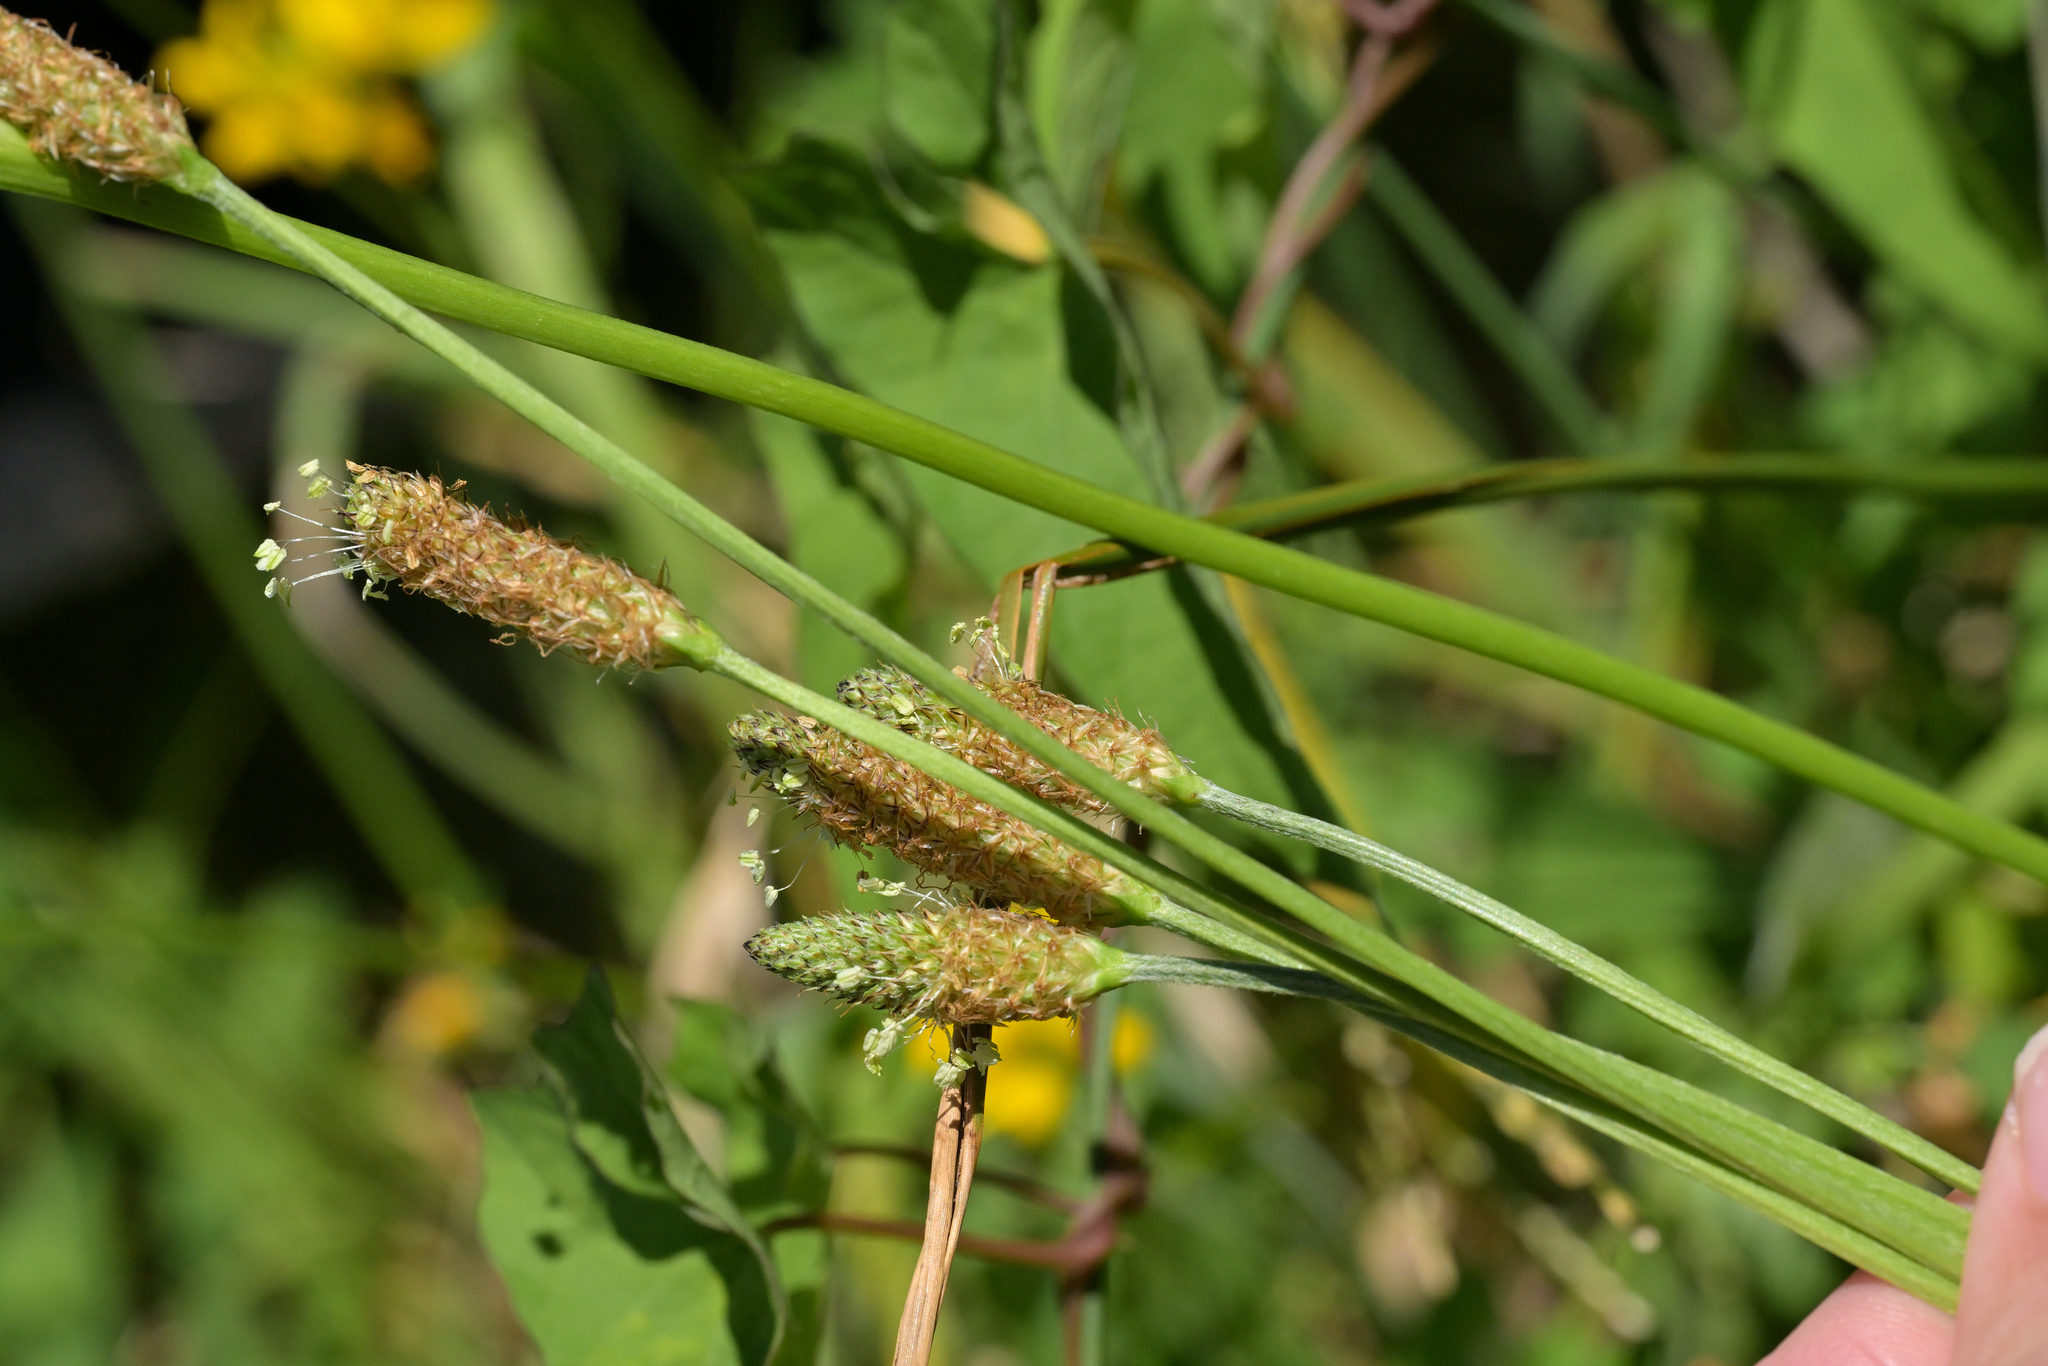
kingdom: Plantae
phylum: Tracheophyta
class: Magnoliopsida
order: Lamiales
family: Plantaginaceae
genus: Plantago
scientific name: Plantago lanceolata
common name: Ribwort plantain
